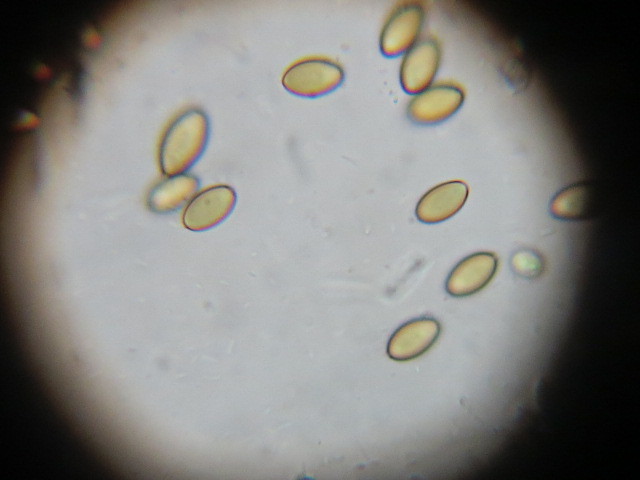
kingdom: Fungi
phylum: Basidiomycota
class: Agaricomycetes
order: Agaricales
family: Strophariaceae
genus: Leratiomyces
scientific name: Leratiomyces erythrocephalus
